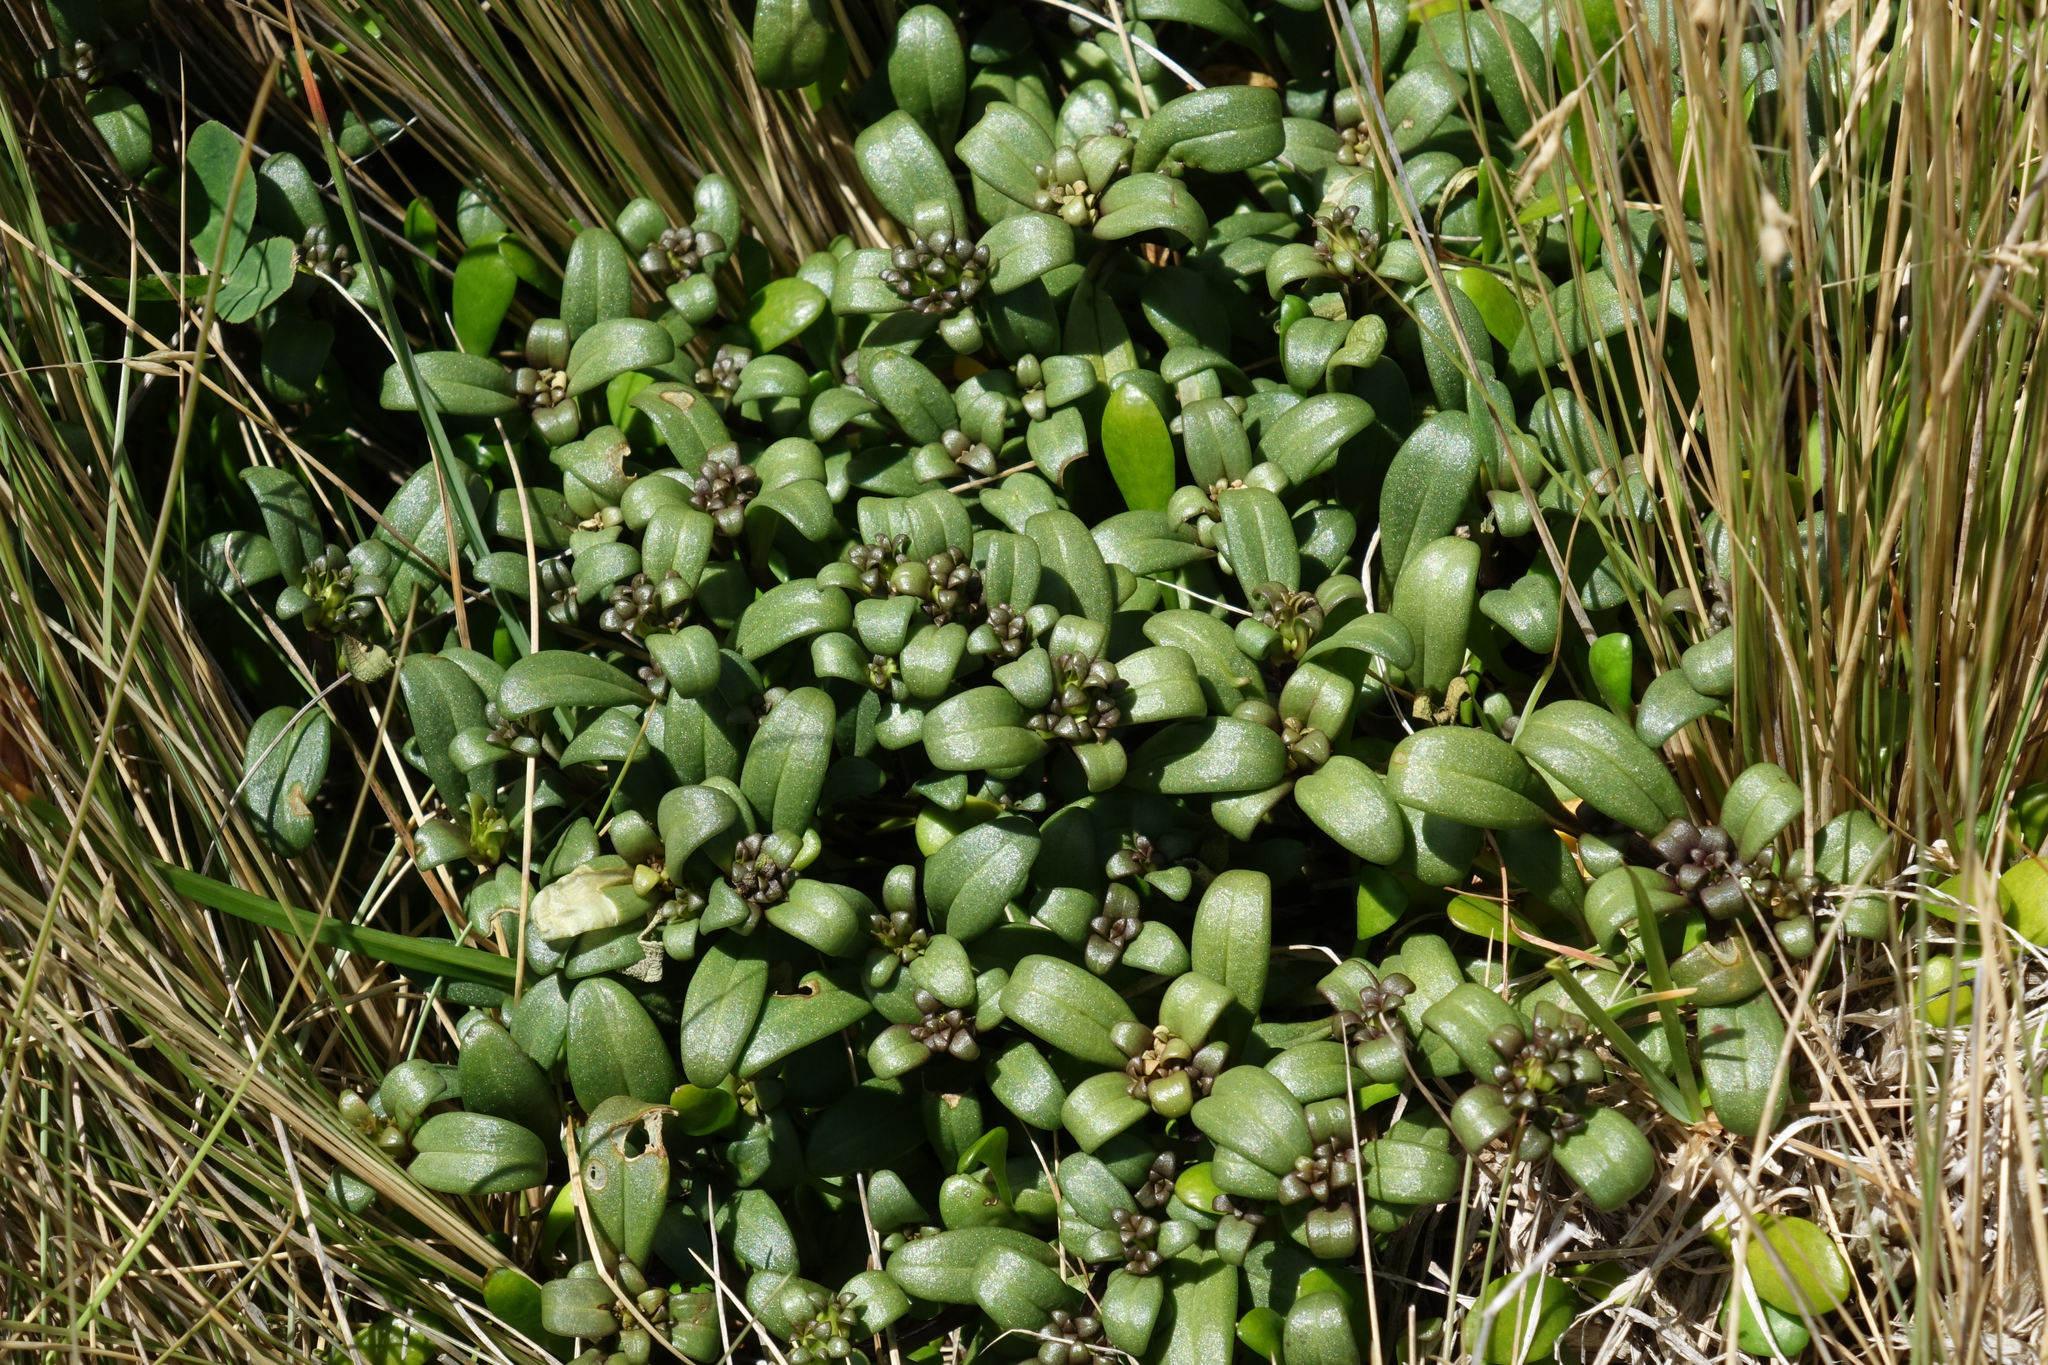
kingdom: Plantae
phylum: Tracheophyta
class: Magnoliopsida
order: Gentianales
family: Gentianaceae
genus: Gentianella
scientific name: Gentianella saxosa
